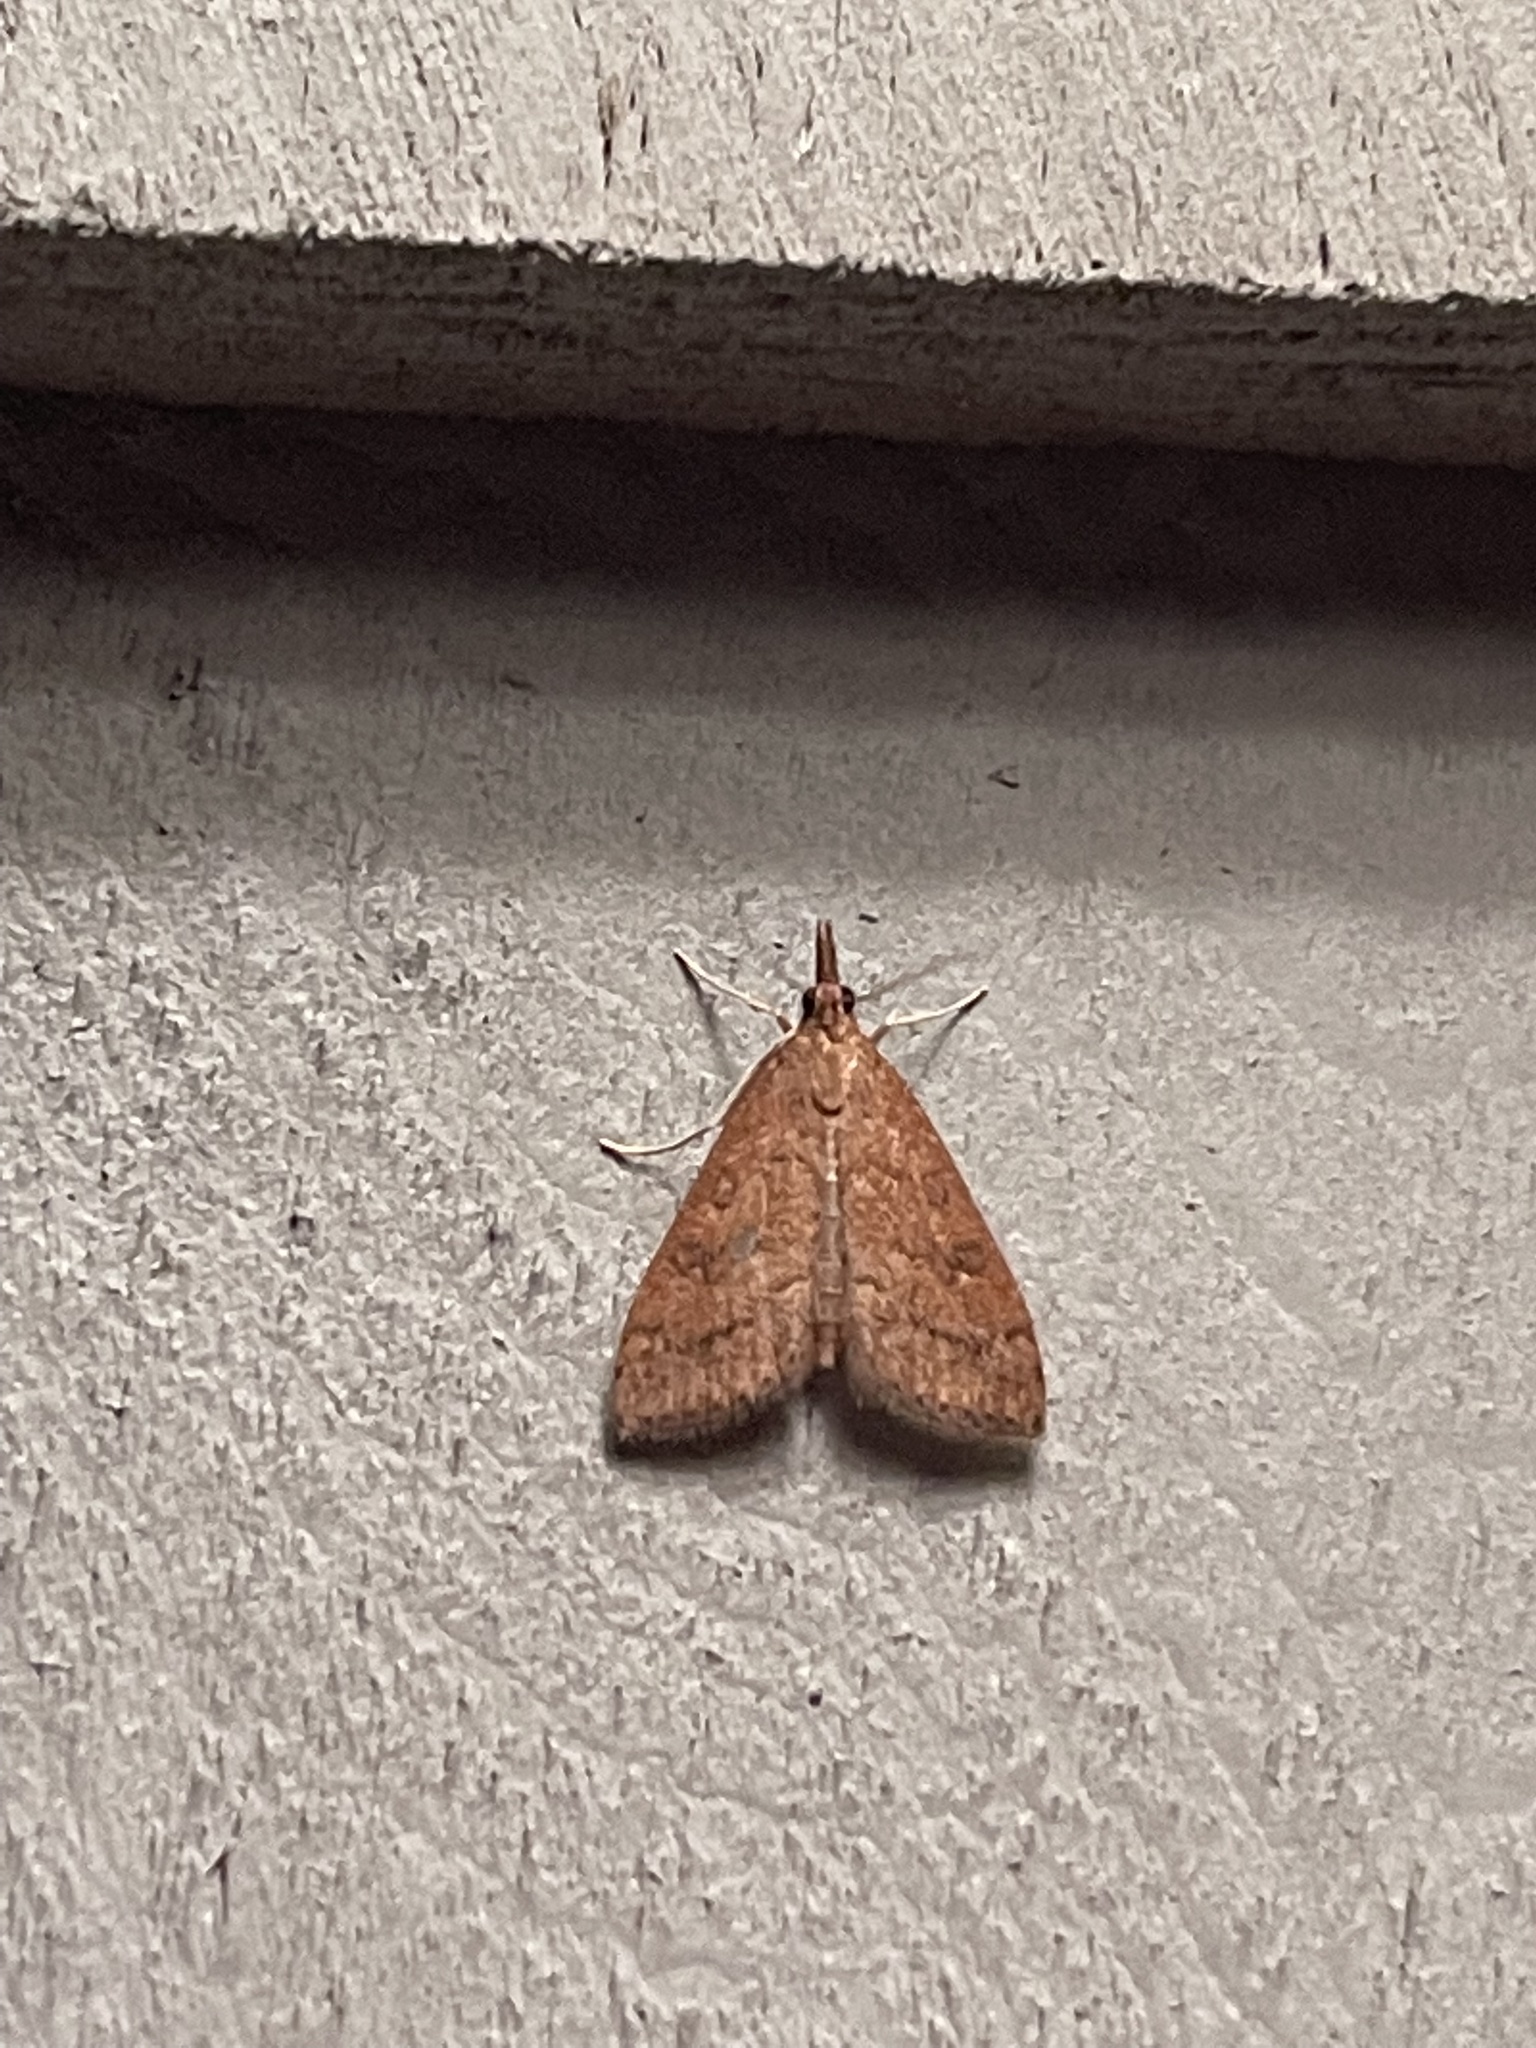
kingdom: Animalia
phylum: Arthropoda
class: Insecta
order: Lepidoptera
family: Crambidae
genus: Udea
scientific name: Udea rubigalis
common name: Celery leaftier moth
